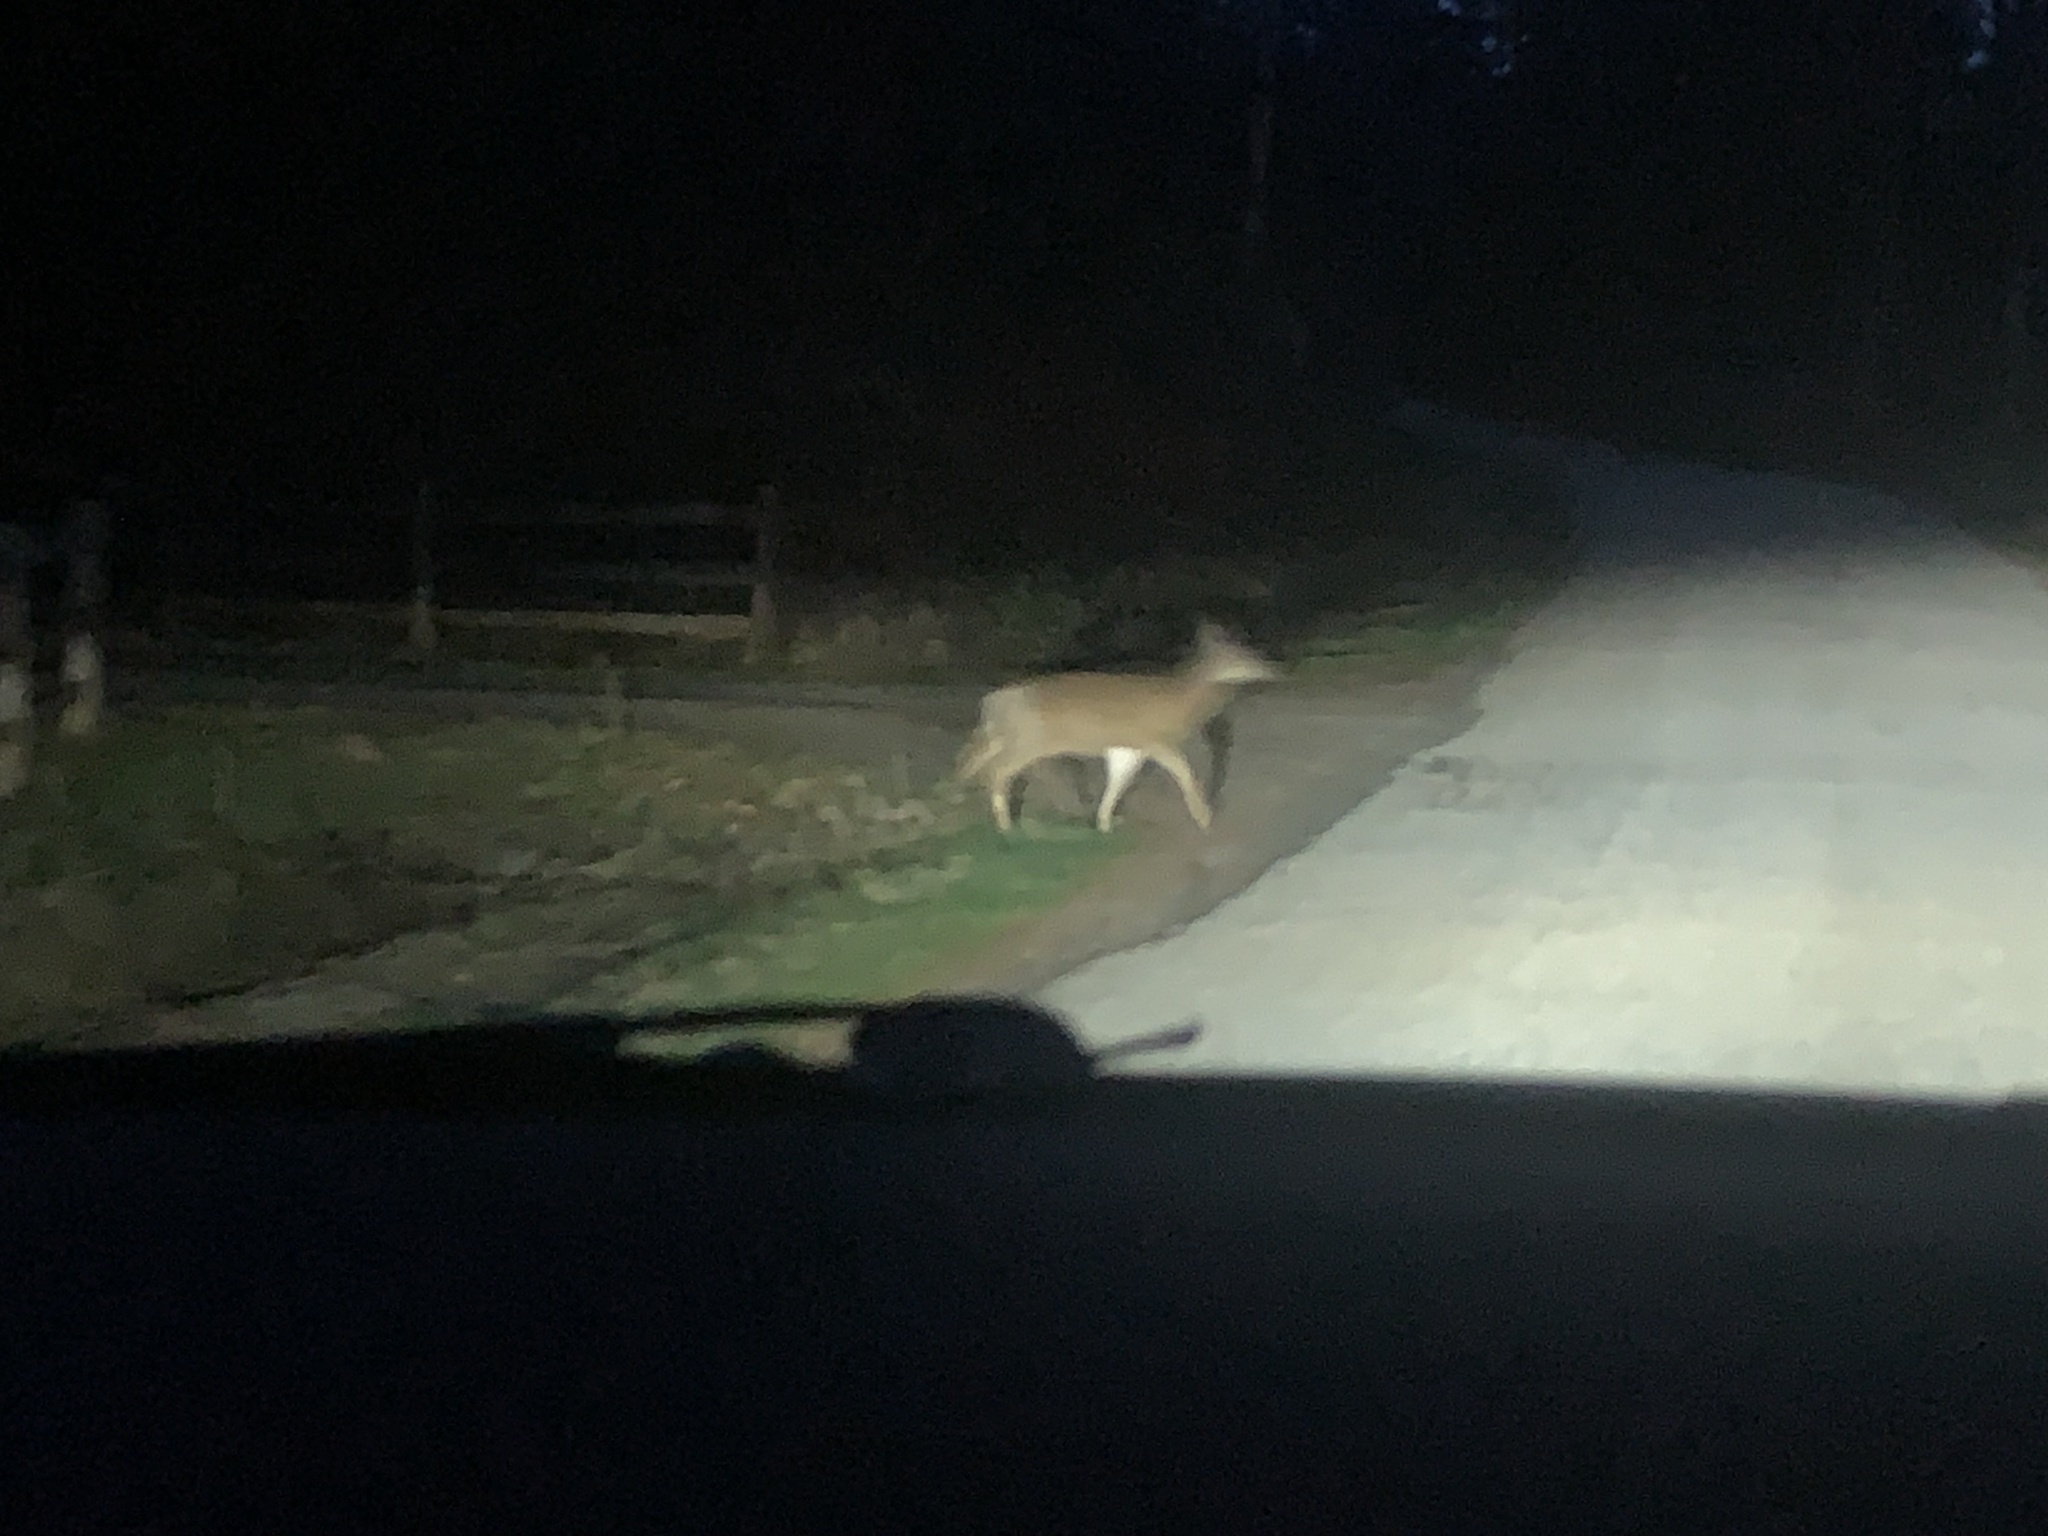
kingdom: Animalia
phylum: Chordata
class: Mammalia
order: Artiodactyla
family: Cervidae
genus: Odocoileus
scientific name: Odocoileus hemionus
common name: Mule deer
